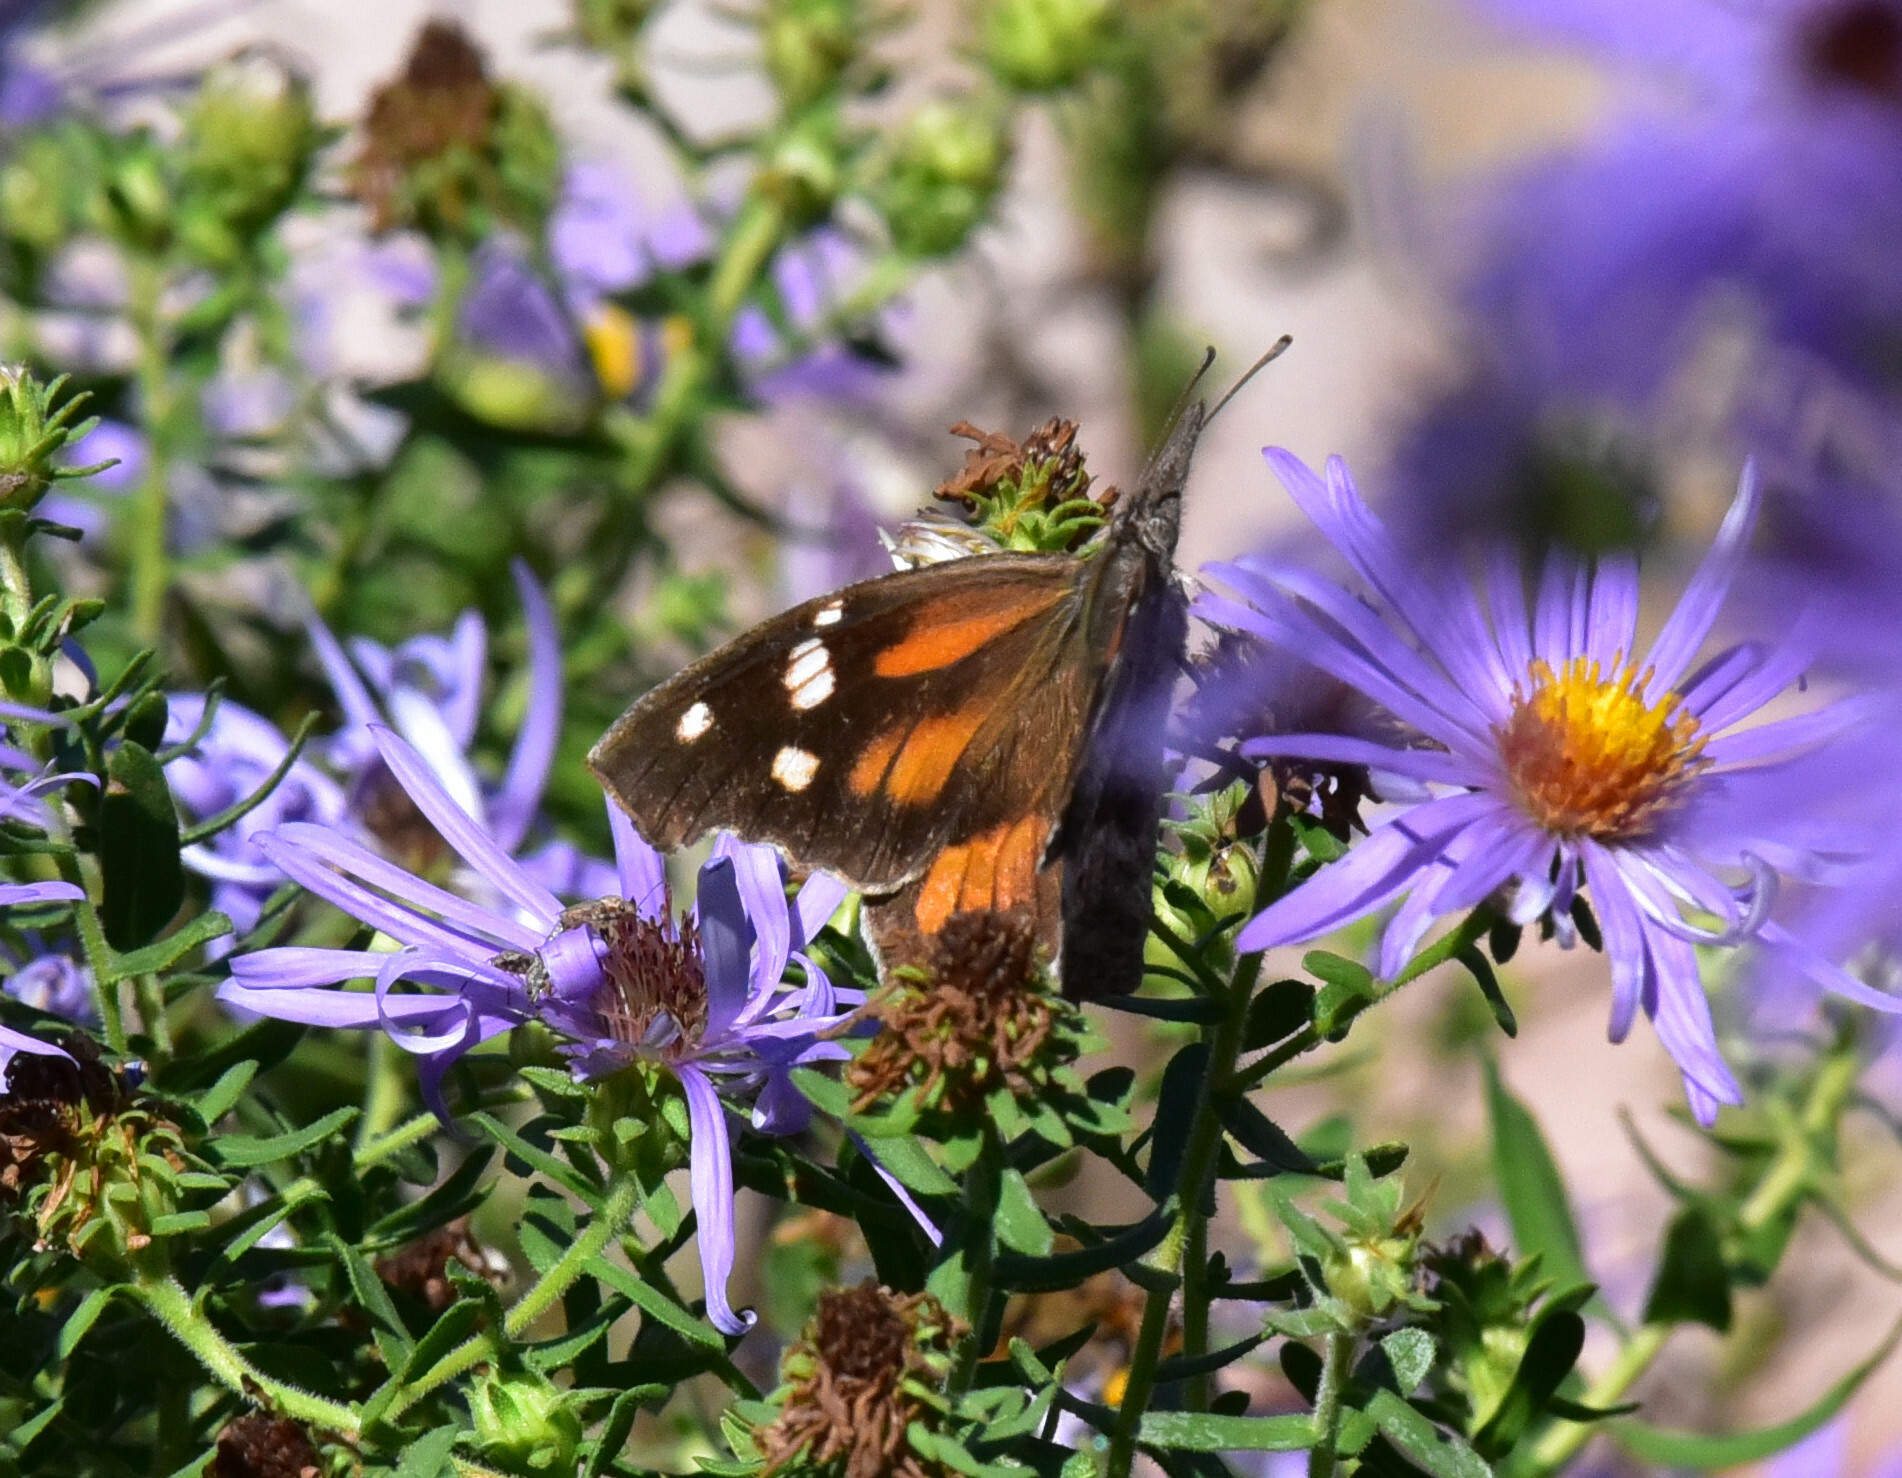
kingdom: Animalia
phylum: Arthropoda
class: Insecta
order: Lepidoptera
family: Nymphalidae
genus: Libytheana
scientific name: Libytheana carinenta
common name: American snout
